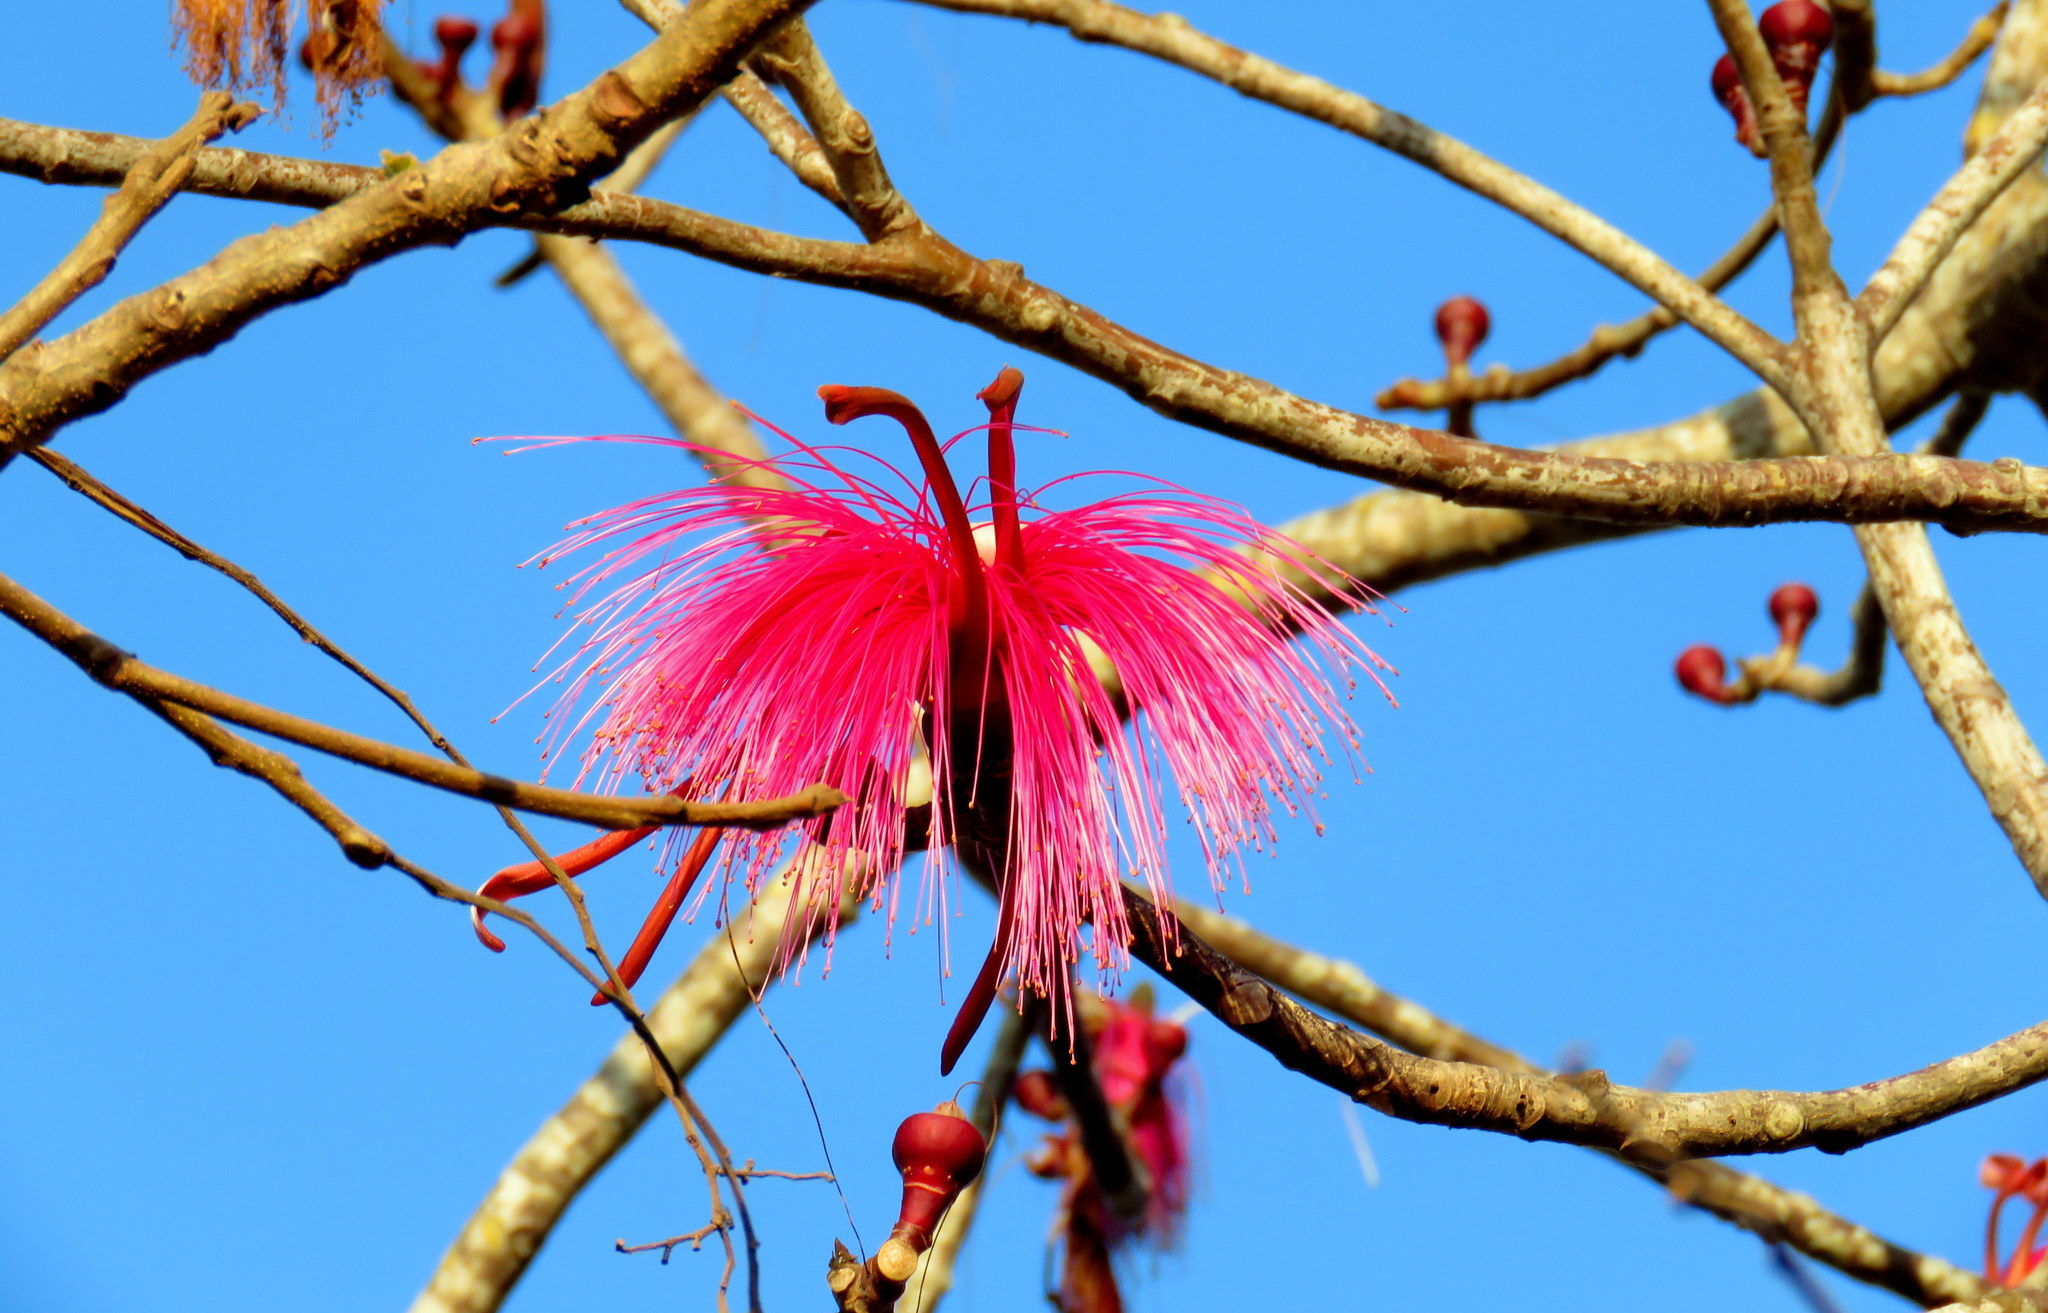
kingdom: Plantae
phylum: Tracheophyta
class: Magnoliopsida
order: Malvales
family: Malvaceae
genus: Pseudobombax
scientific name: Pseudobombax ellipticum
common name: Shaving-brush-tree
